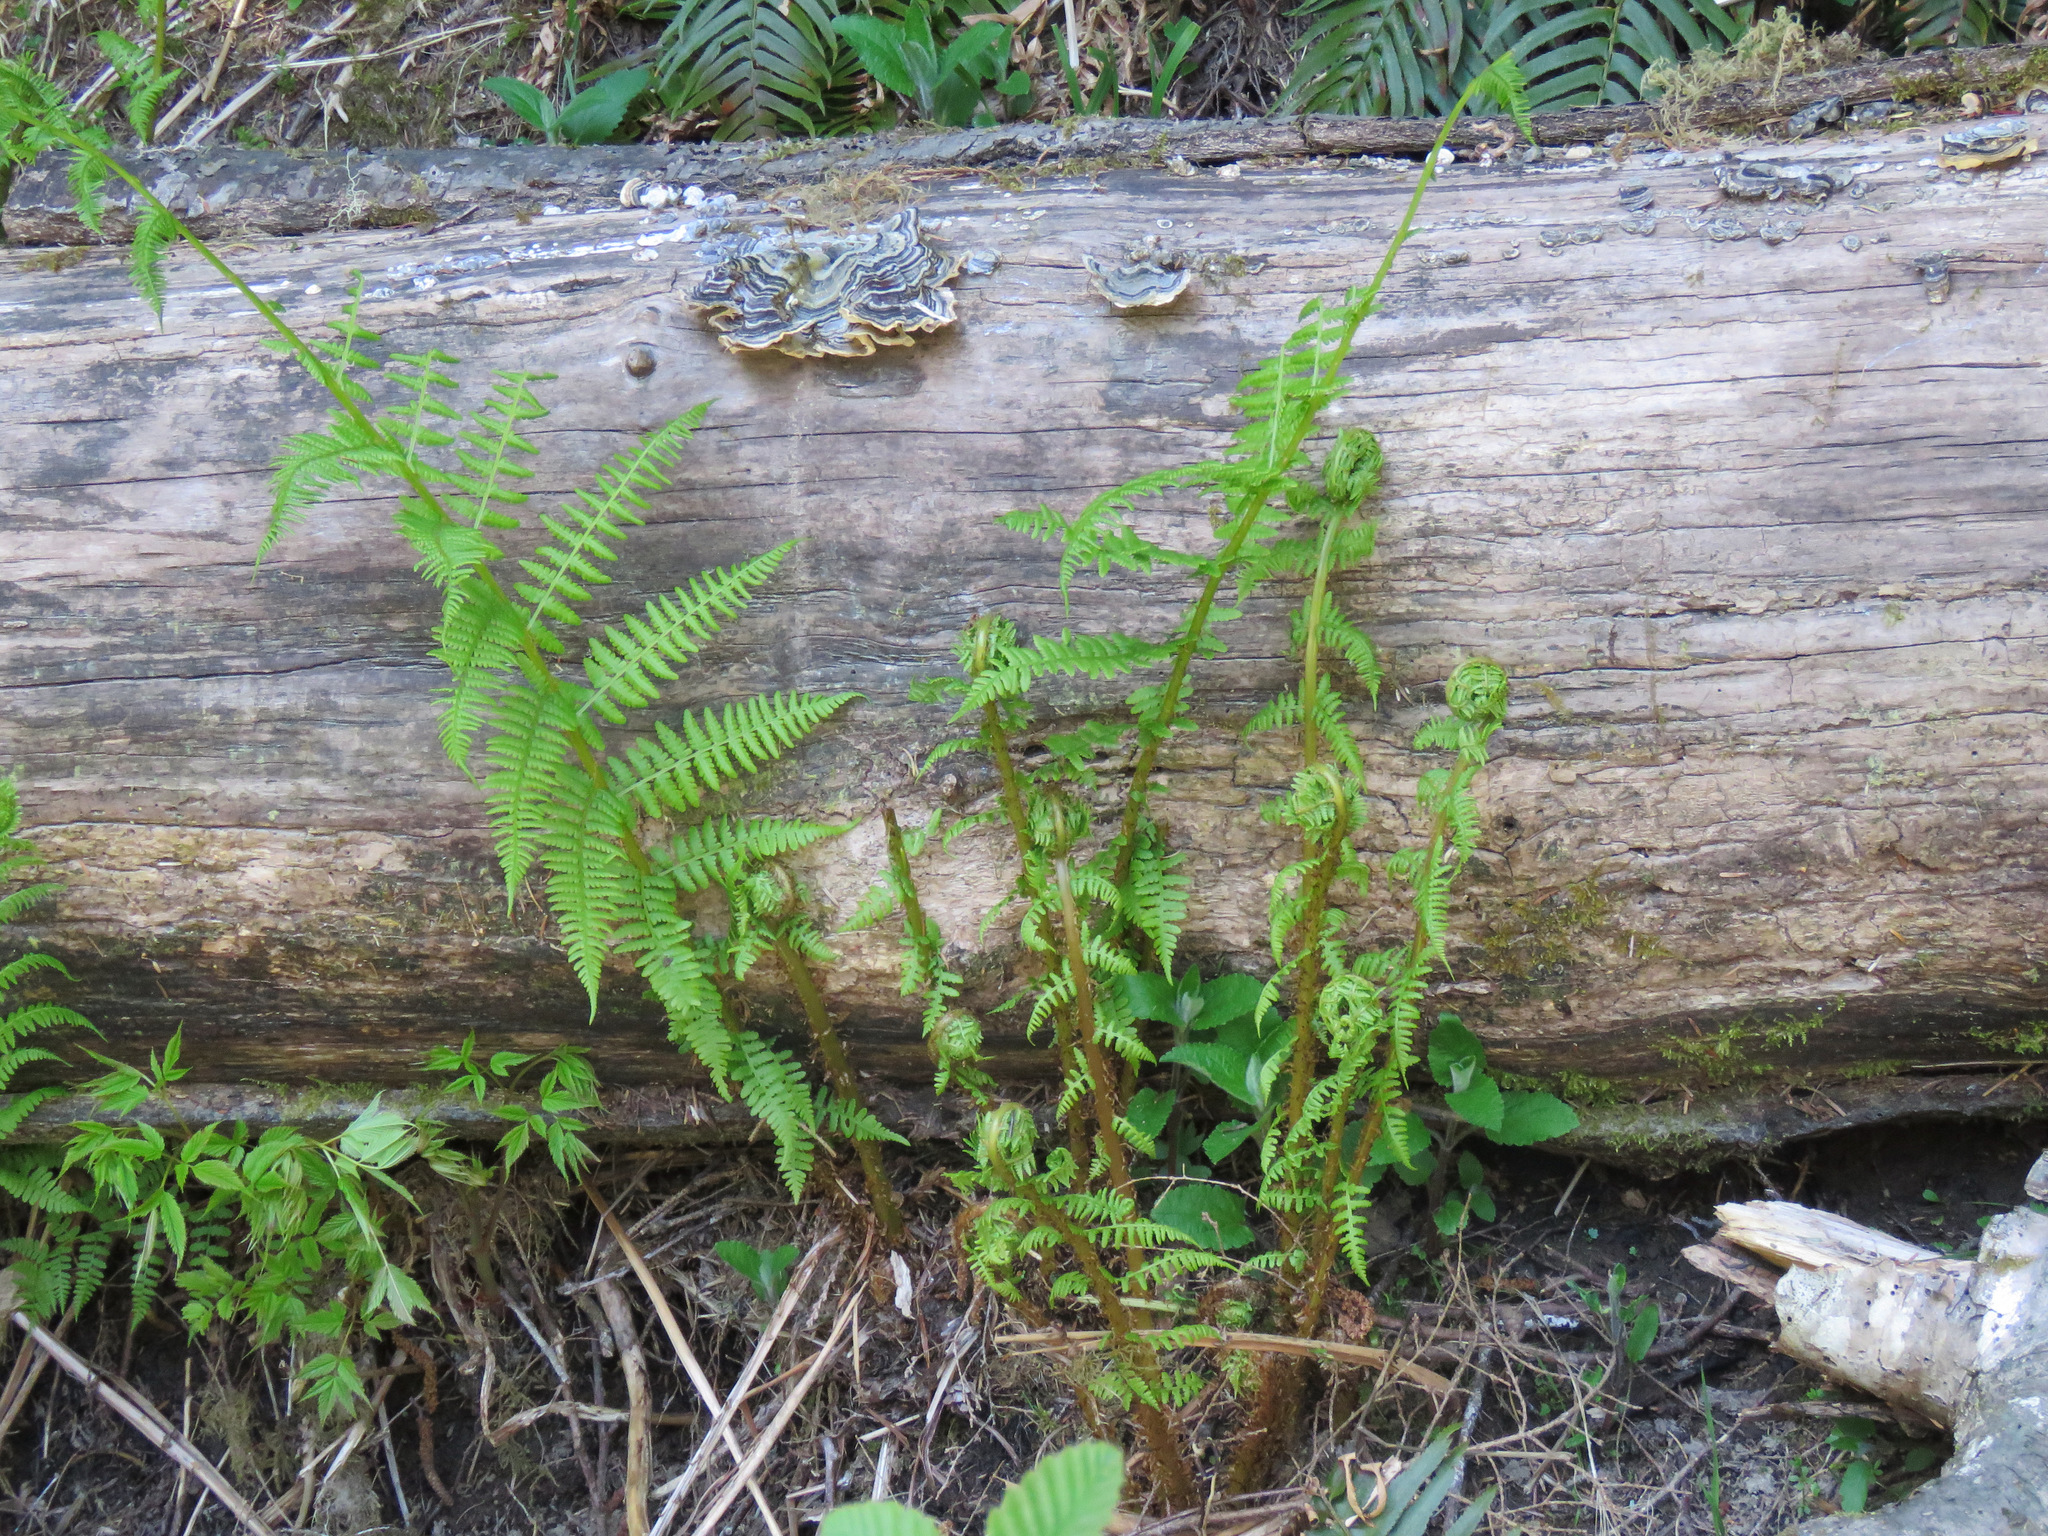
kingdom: Plantae
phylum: Tracheophyta
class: Polypodiopsida
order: Polypodiales
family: Athyriaceae
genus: Athyrium
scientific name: Athyrium filix-femina
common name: Lady fern
